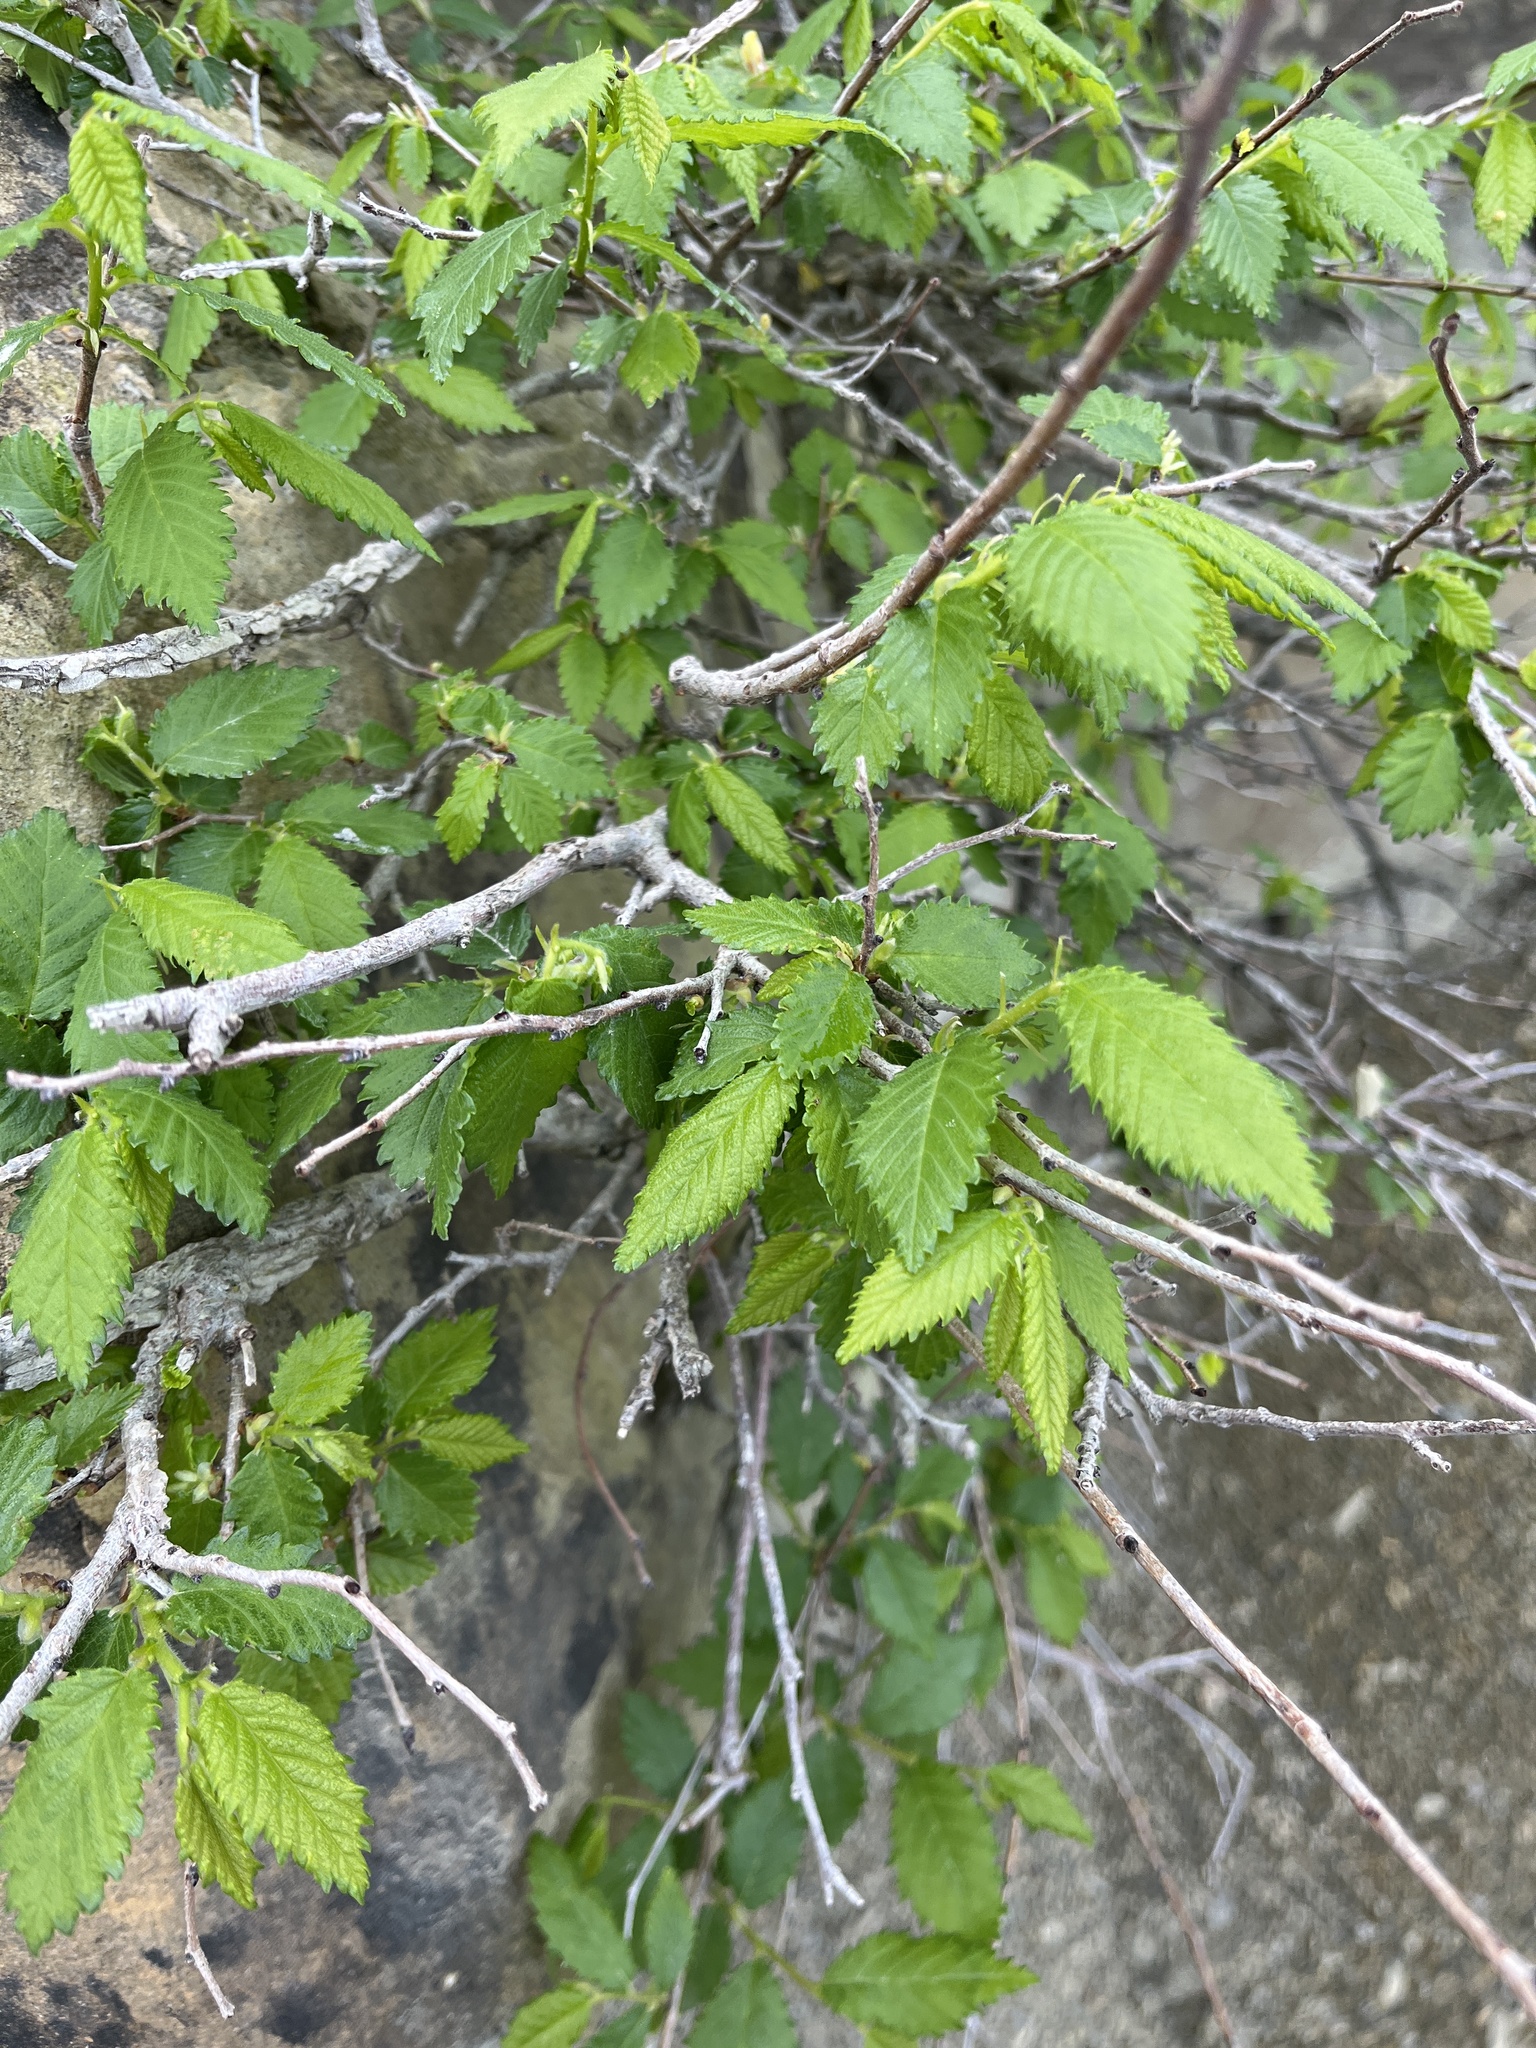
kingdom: Plantae
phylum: Tracheophyta
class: Magnoliopsida
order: Rosales
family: Ulmaceae
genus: Ulmus
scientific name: Ulmus minor
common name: Small-leaved elm
